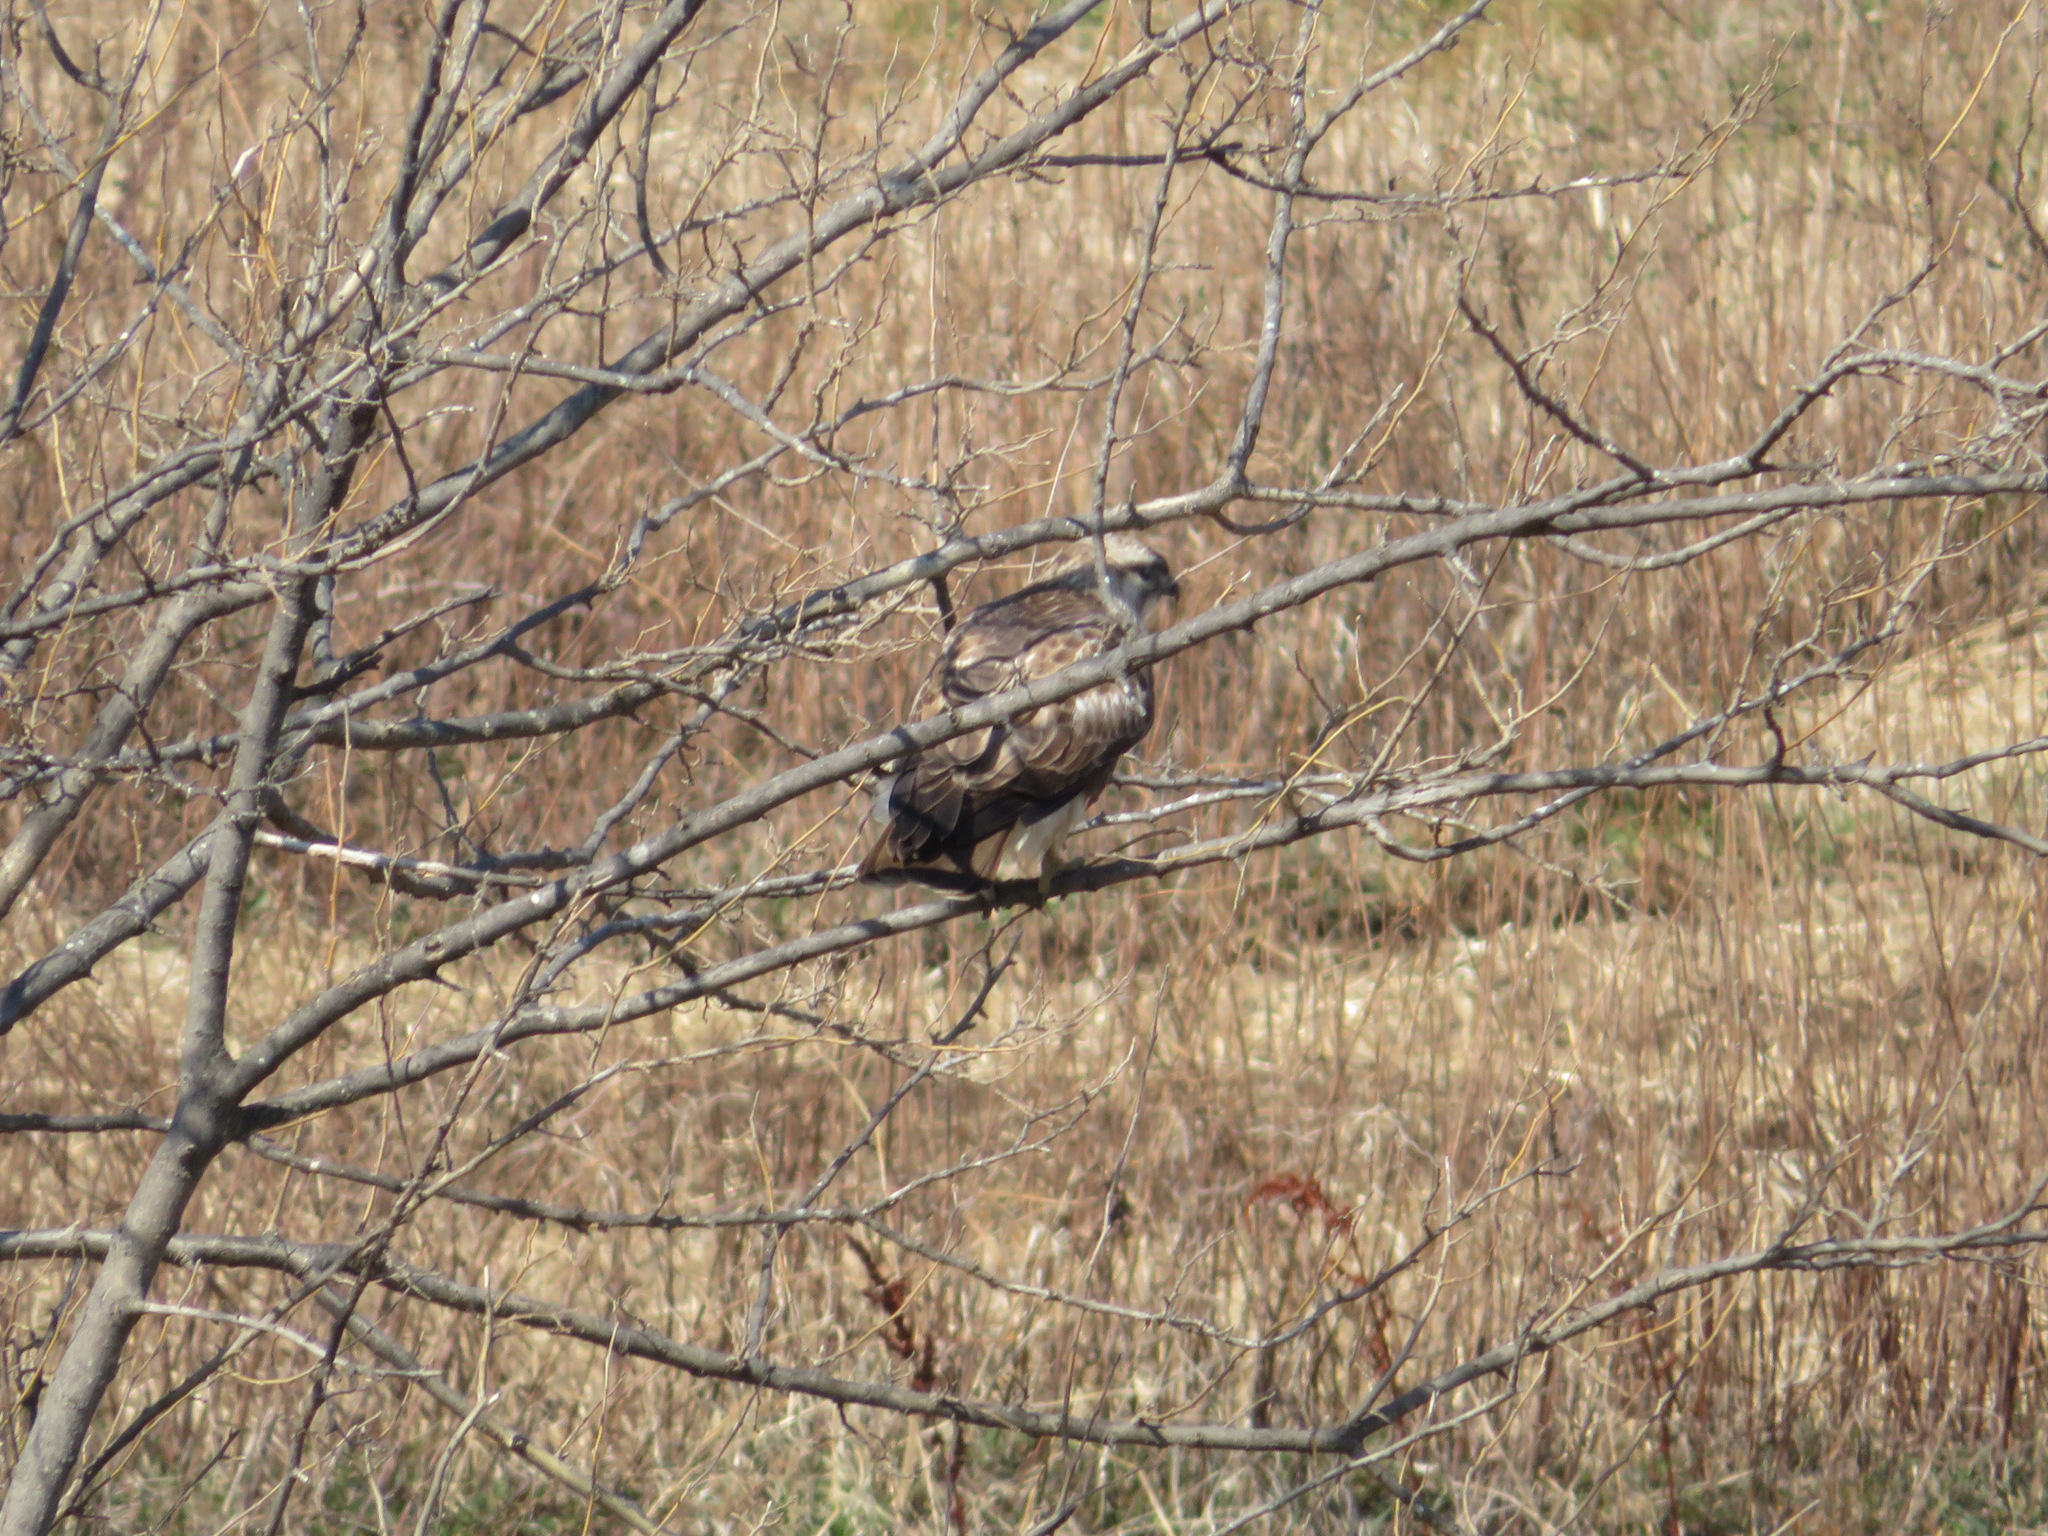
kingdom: Animalia
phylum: Chordata
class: Aves
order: Accipitriformes
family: Accipitridae
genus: Buteo
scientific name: Buteo japonicus
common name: Eastern buzzard
